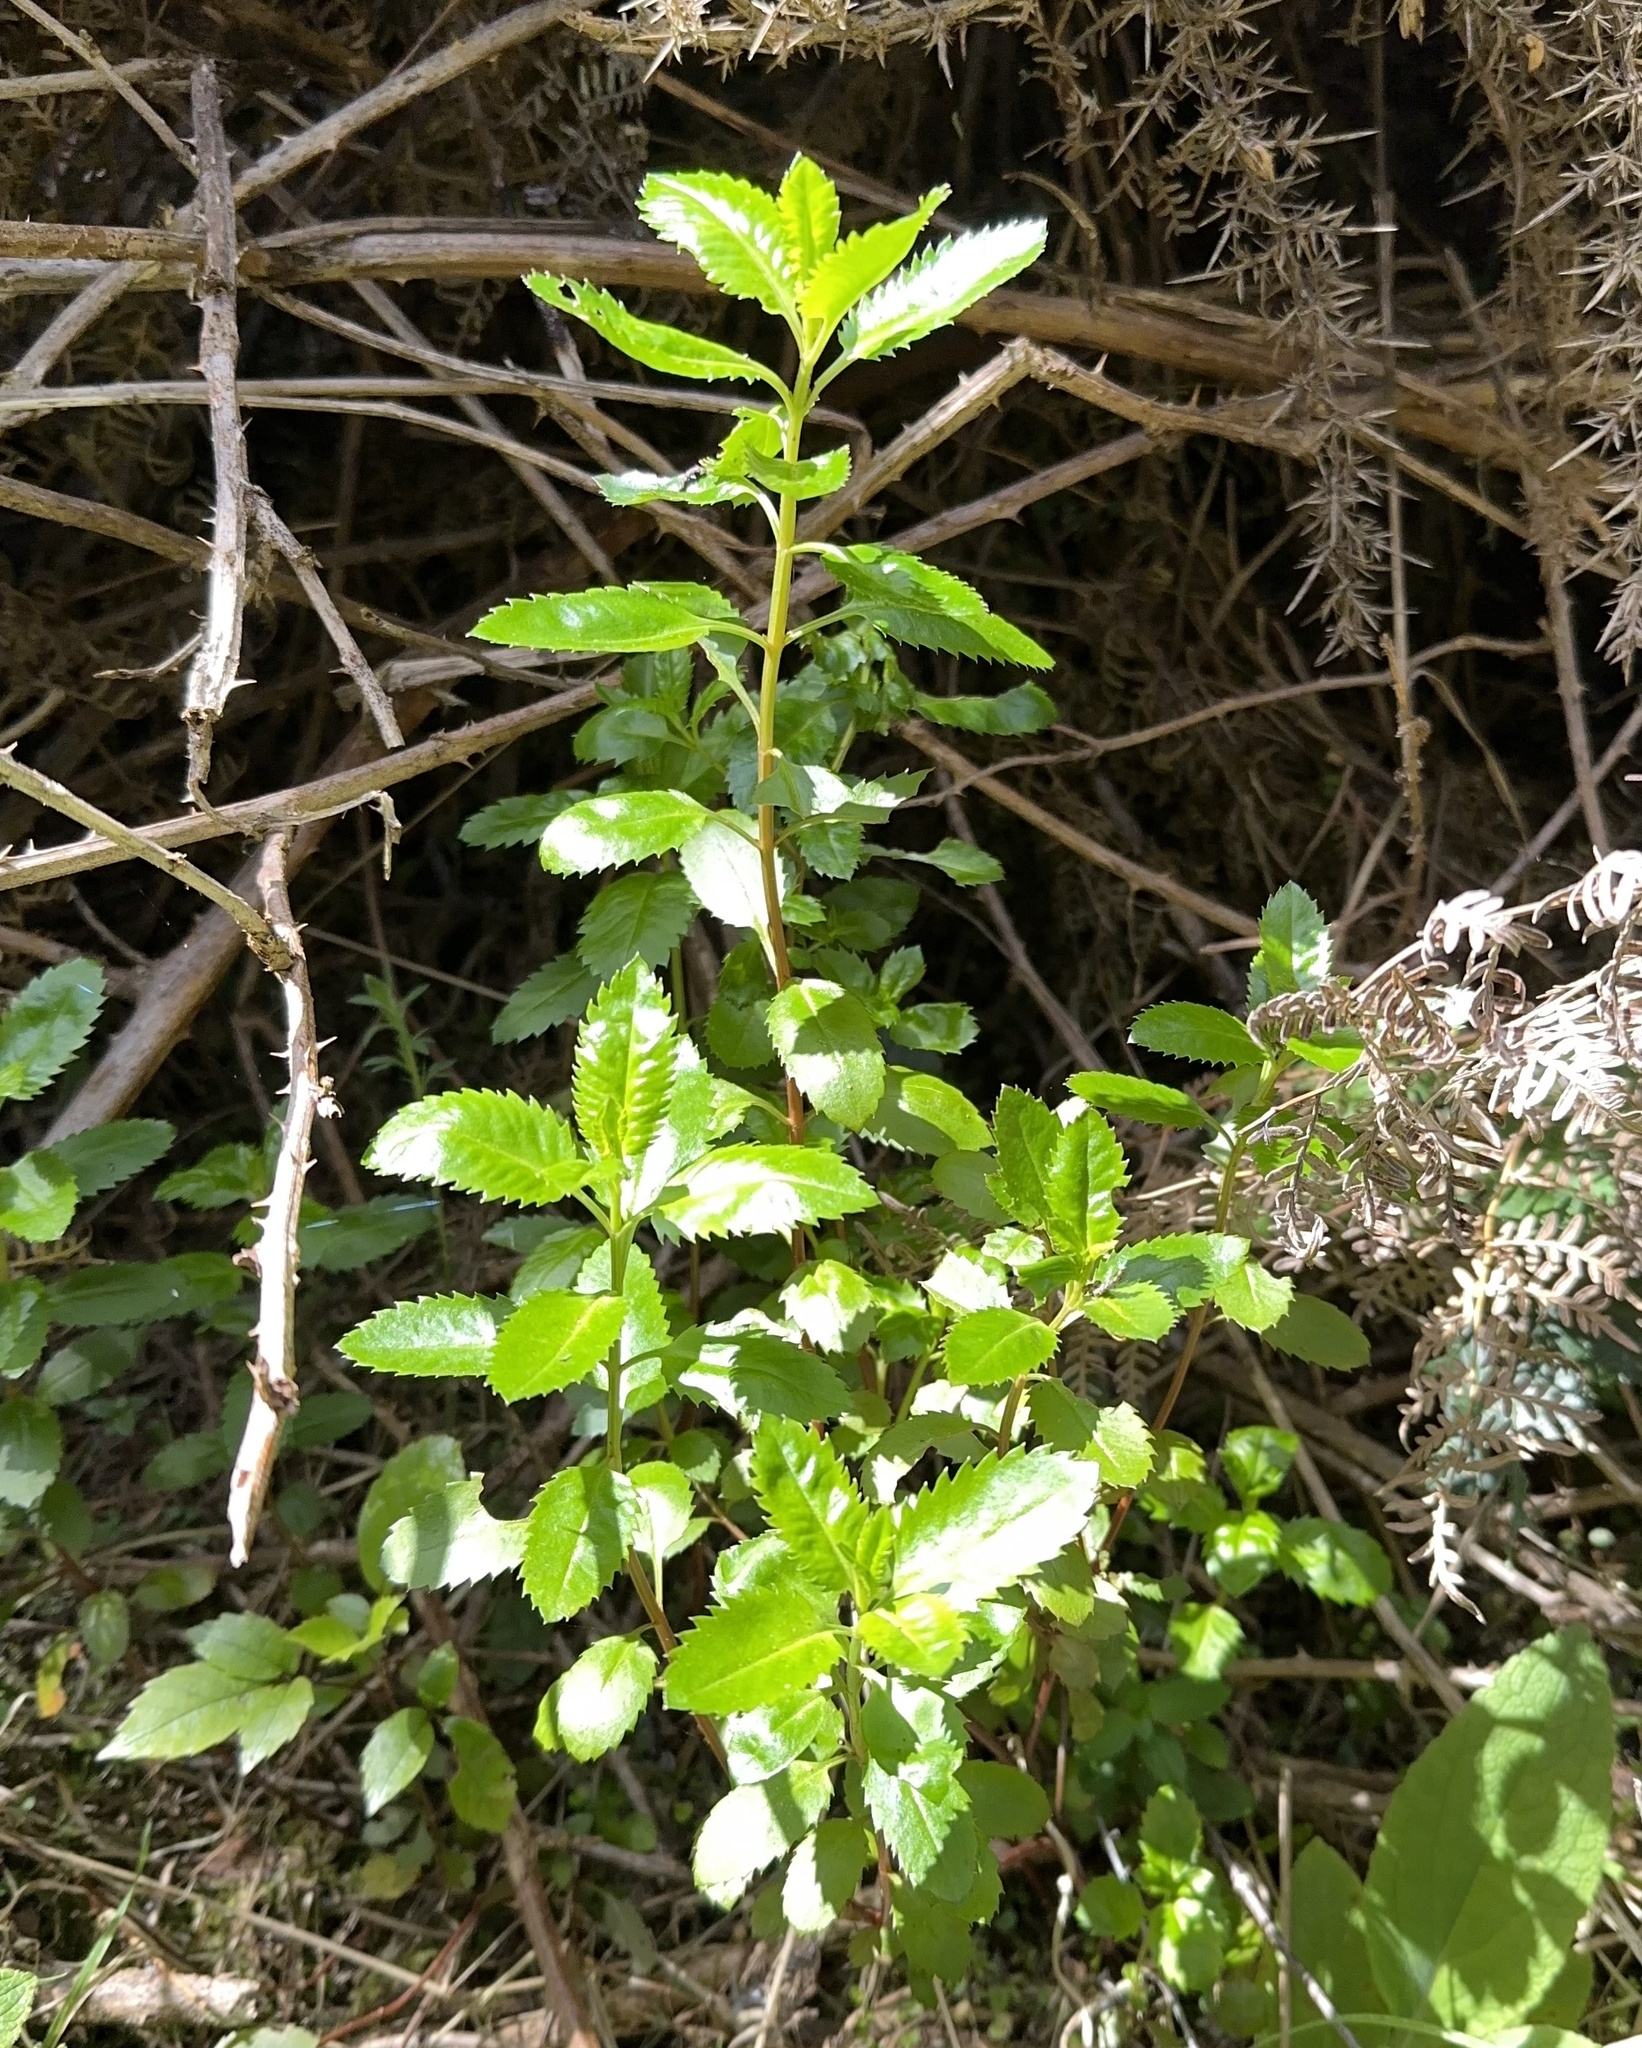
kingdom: Plantae
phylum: Tracheophyta
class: Magnoliopsida
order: Saxifragales
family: Haloragaceae
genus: Haloragis
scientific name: Haloragis erecta
